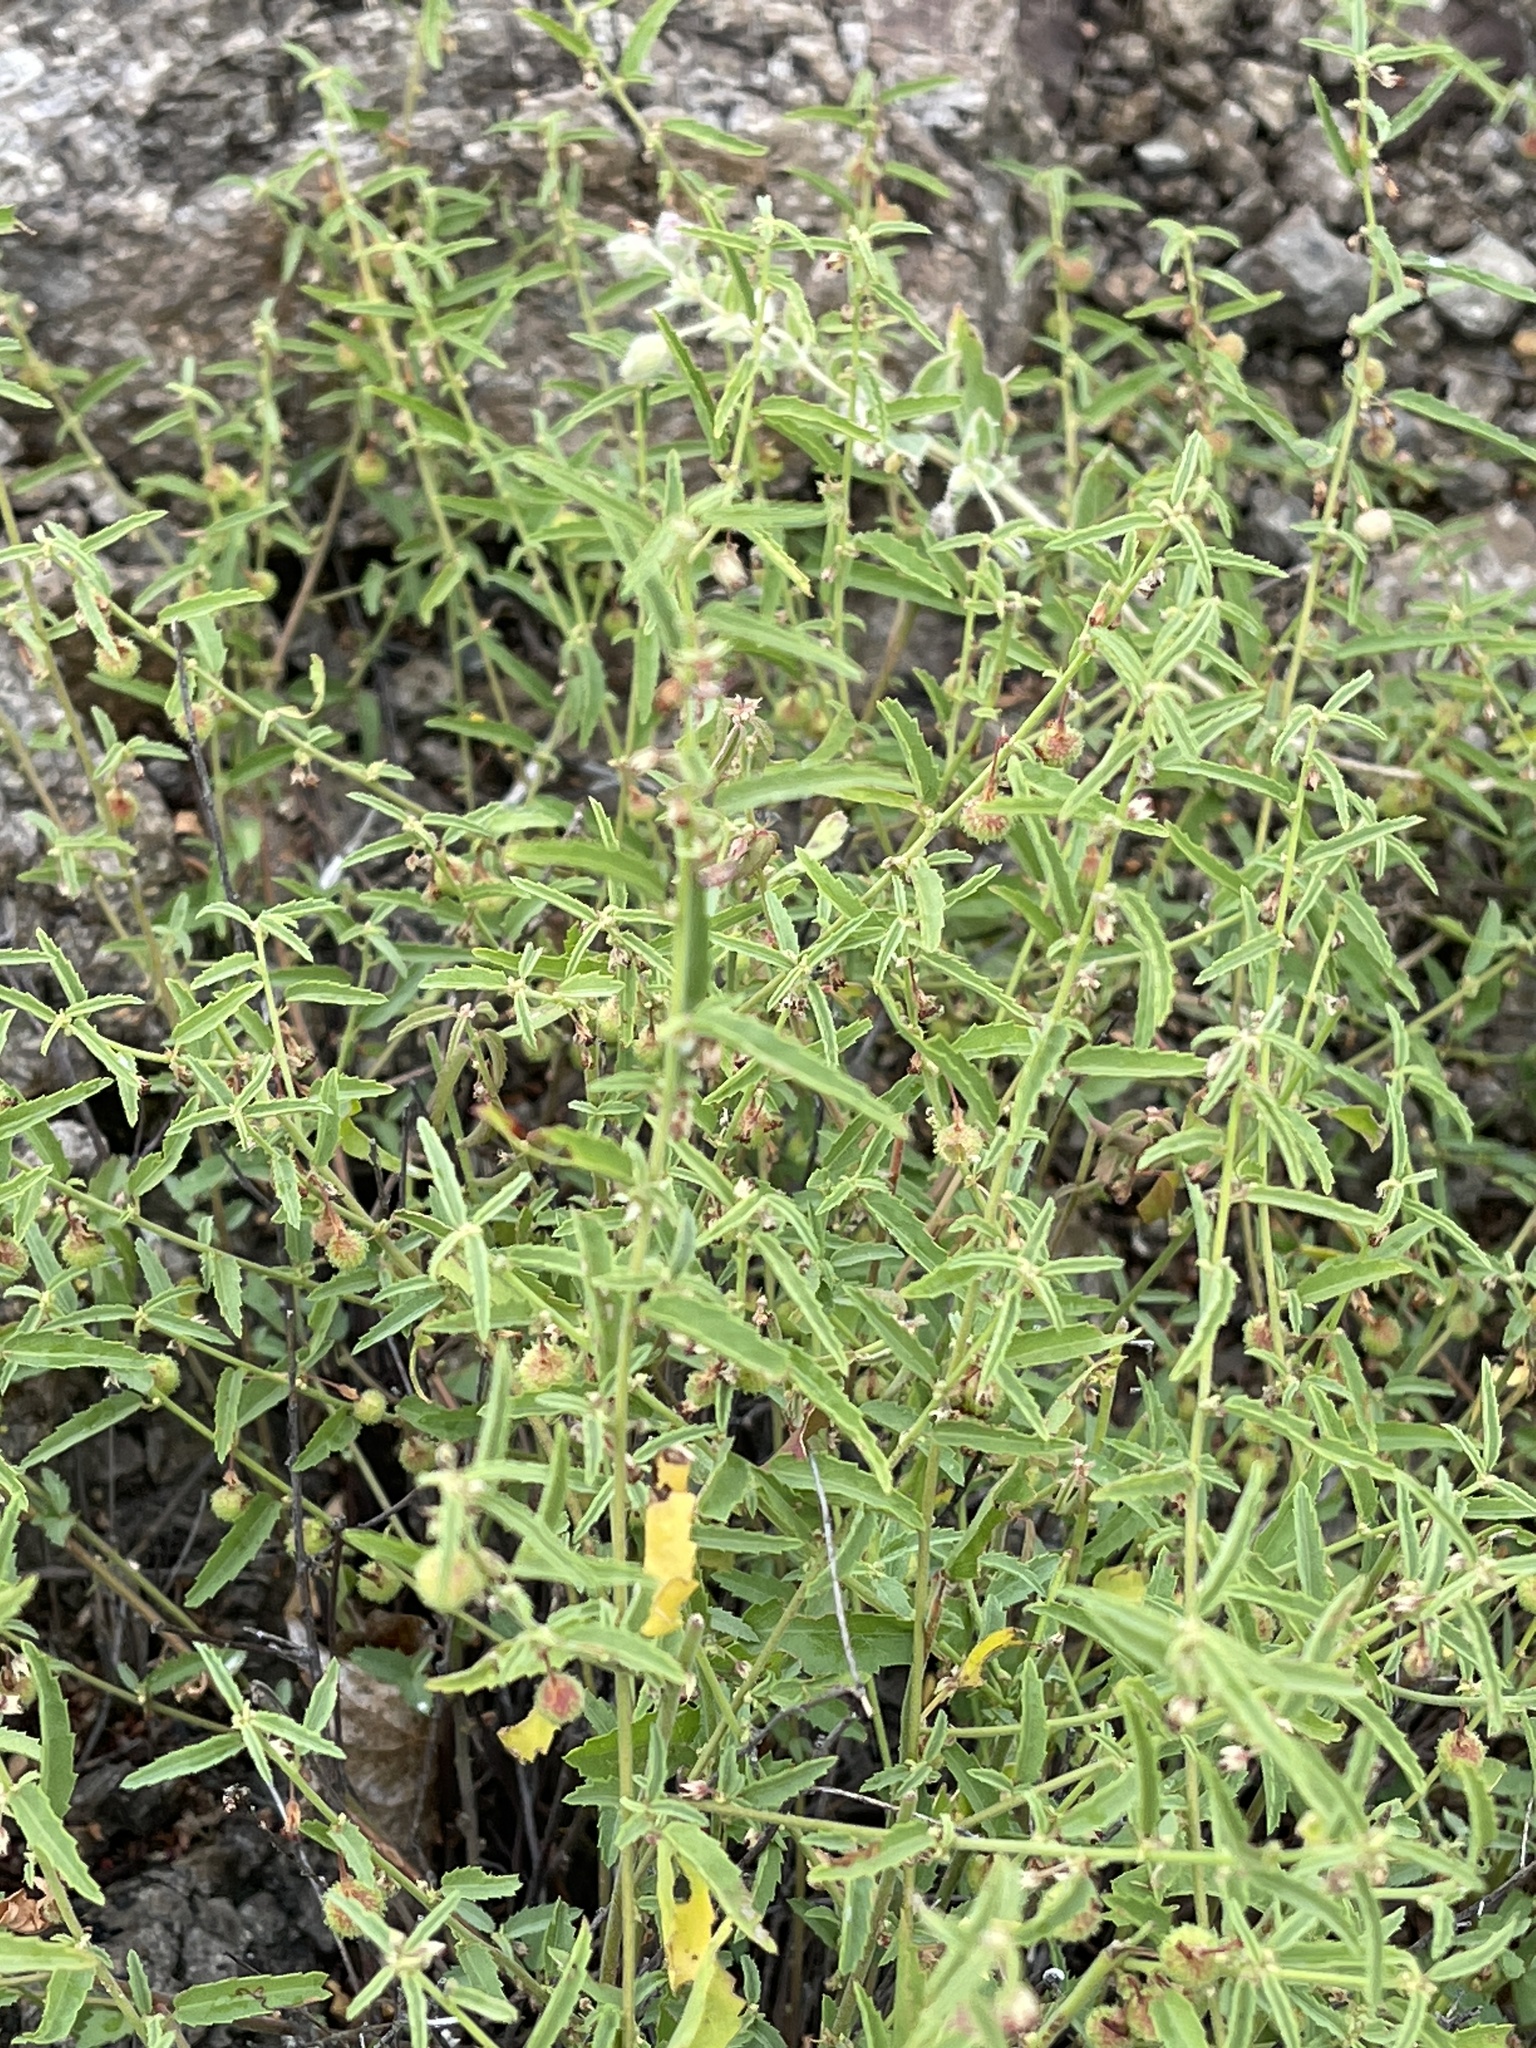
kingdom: Plantae
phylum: Tracheophyta
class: Magnoliopsida
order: Malvales
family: Malvaceae
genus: Ayenia
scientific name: Ayenia filiformis
